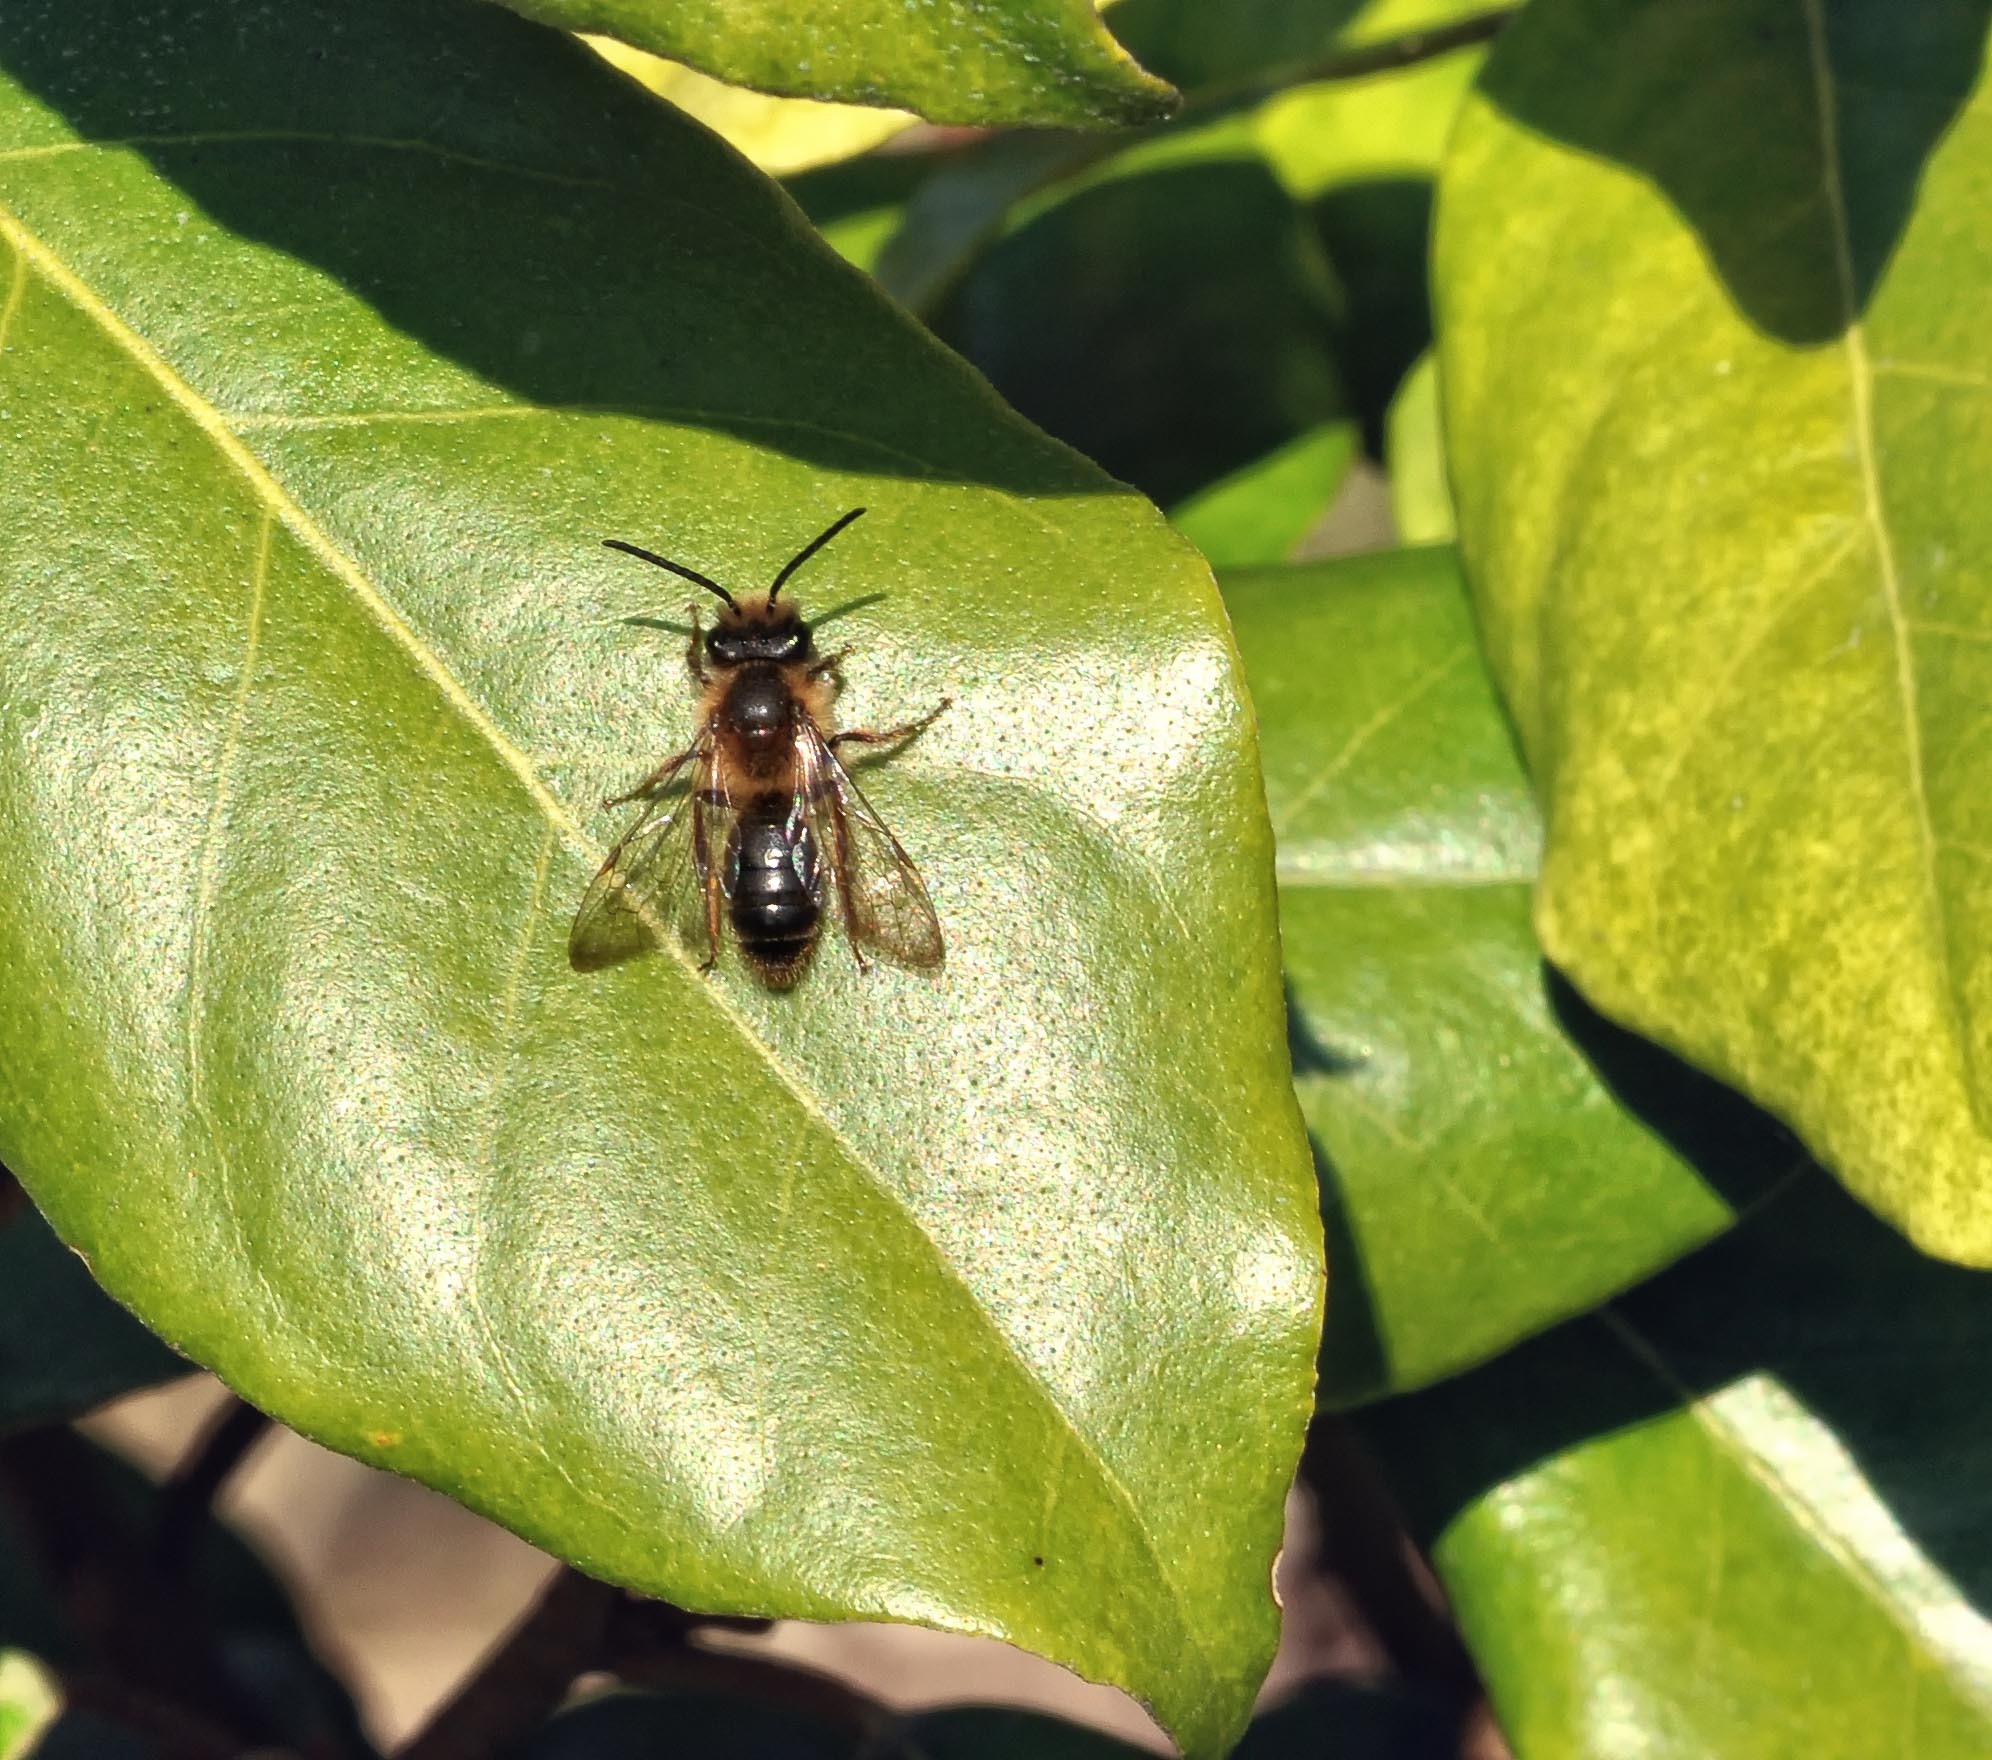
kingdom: Animalia
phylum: Arthropoda
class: Insecta
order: Hymenoptera
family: Andrenidae
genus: Andrena
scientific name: Andrena nigroaenea
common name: Buffish mining bee
